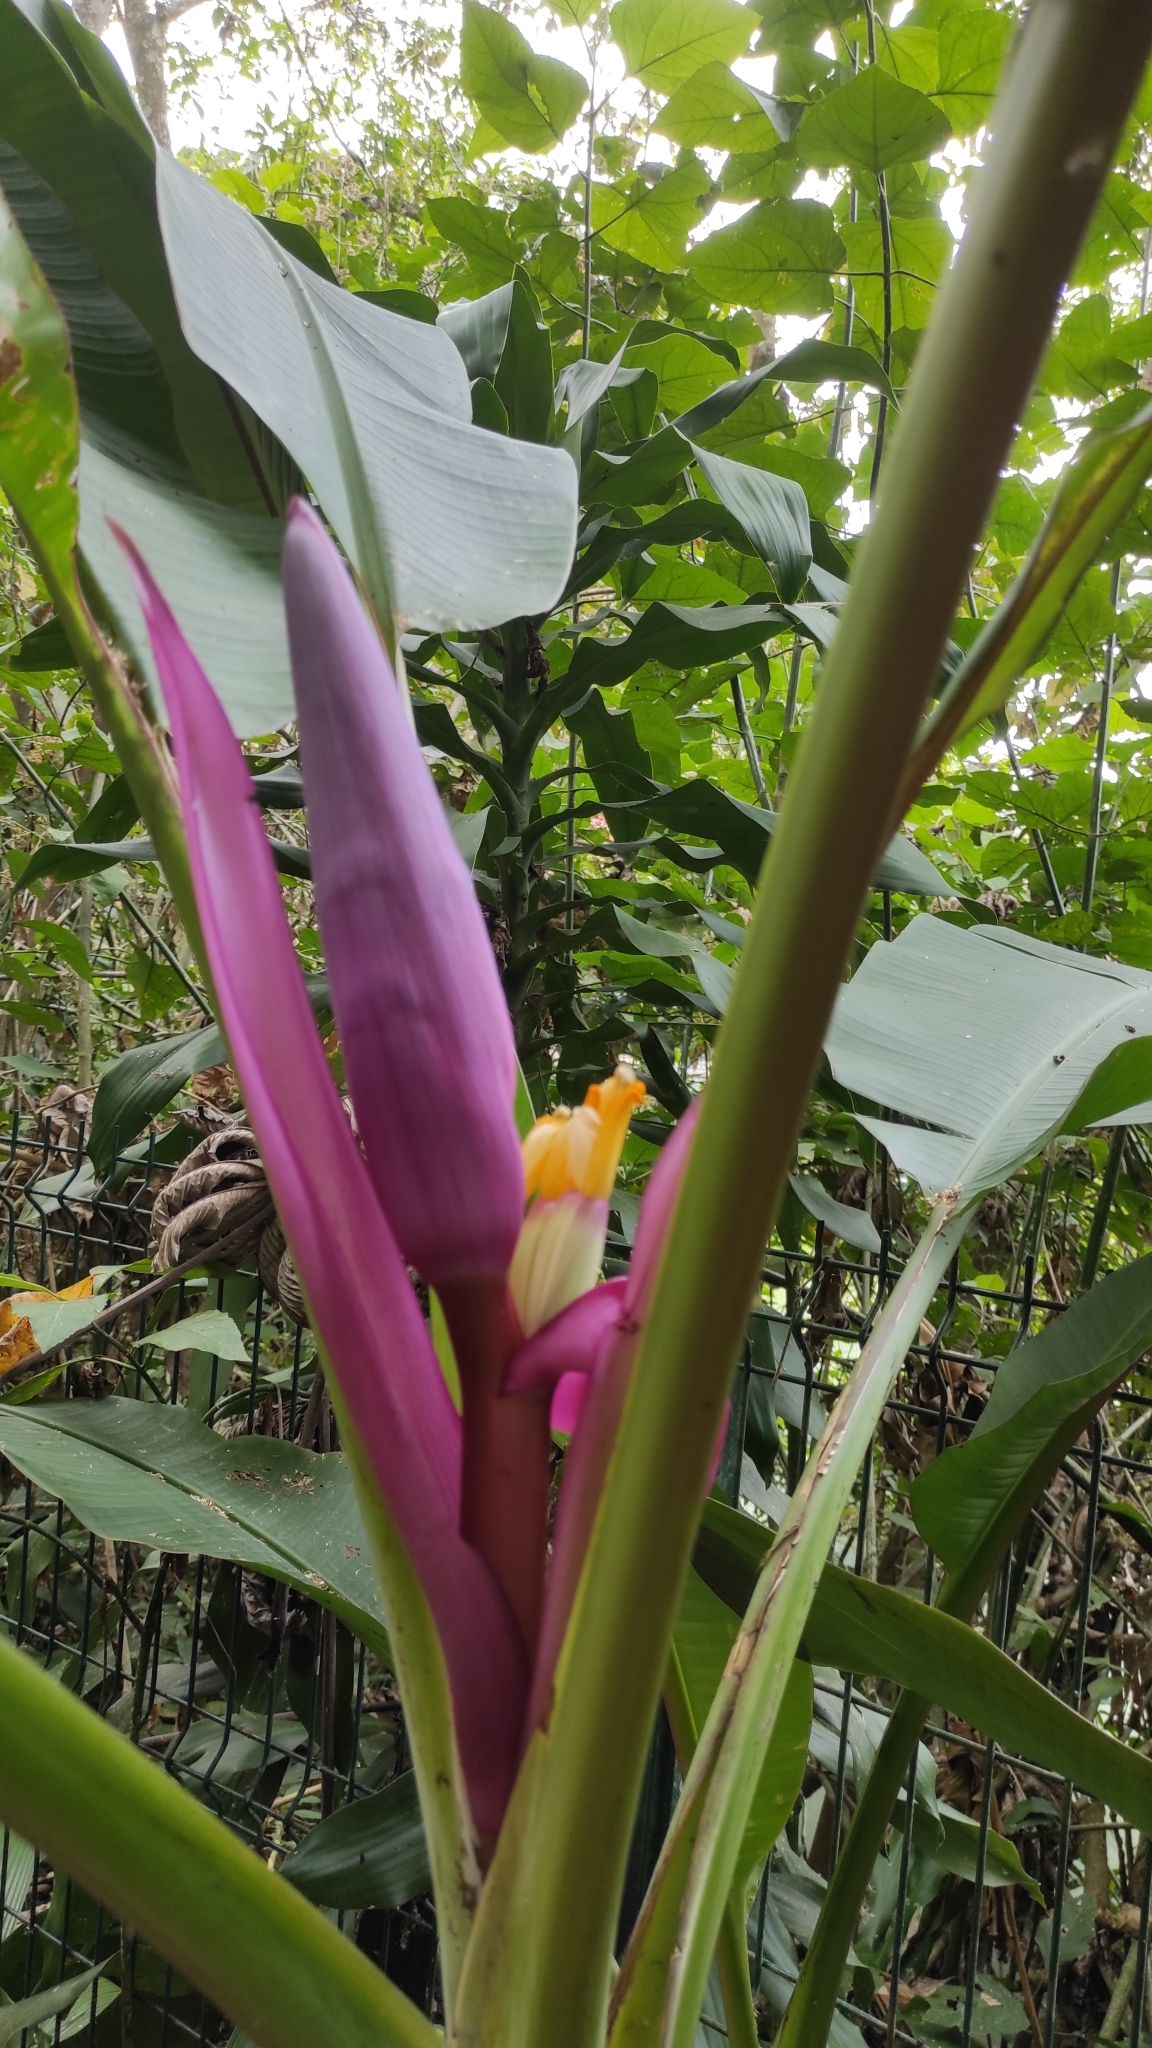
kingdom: Plantae
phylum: Tracheophyta
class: Liliopsida
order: Zingiberales
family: Musaceae
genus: Musa
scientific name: Musa velutina
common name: Pink velvet banana
